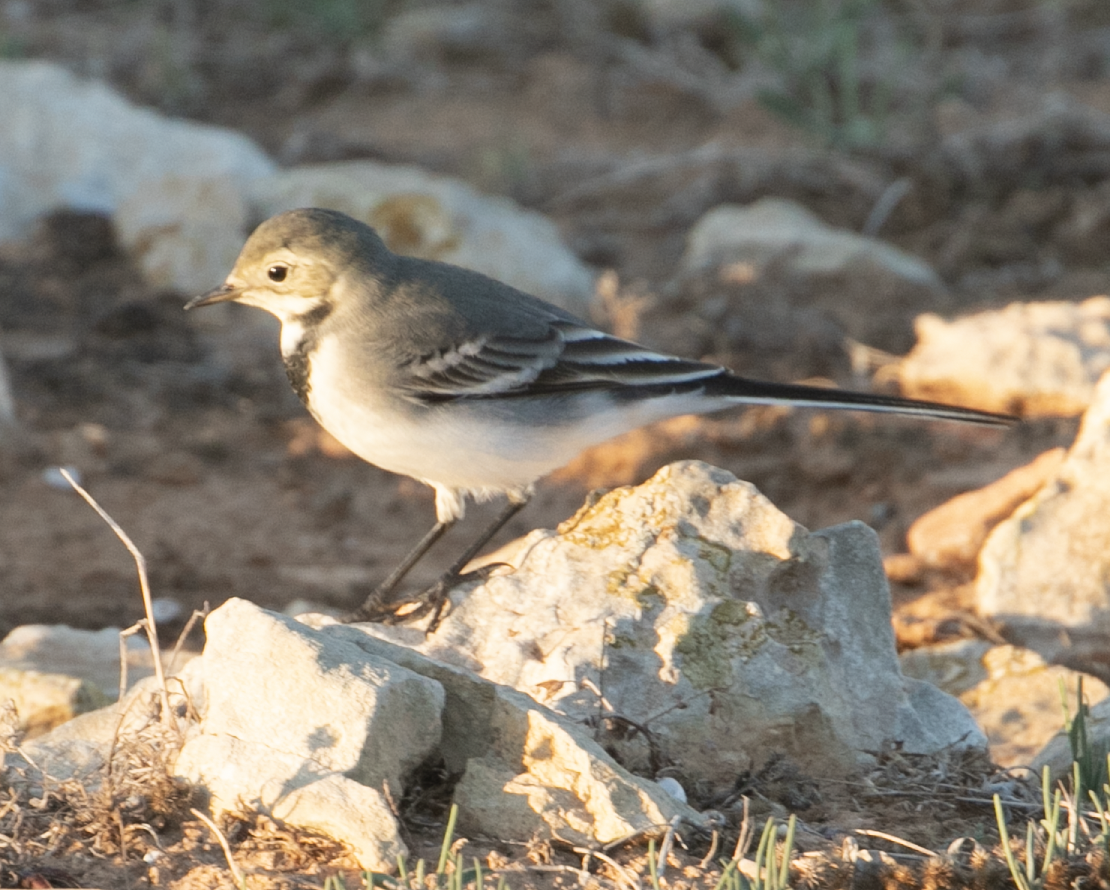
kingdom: Animalia
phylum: Chordata
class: Aves
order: Passeriformes
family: Motacillidae
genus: Motacilla
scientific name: Motacilla alba
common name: White wagtail
